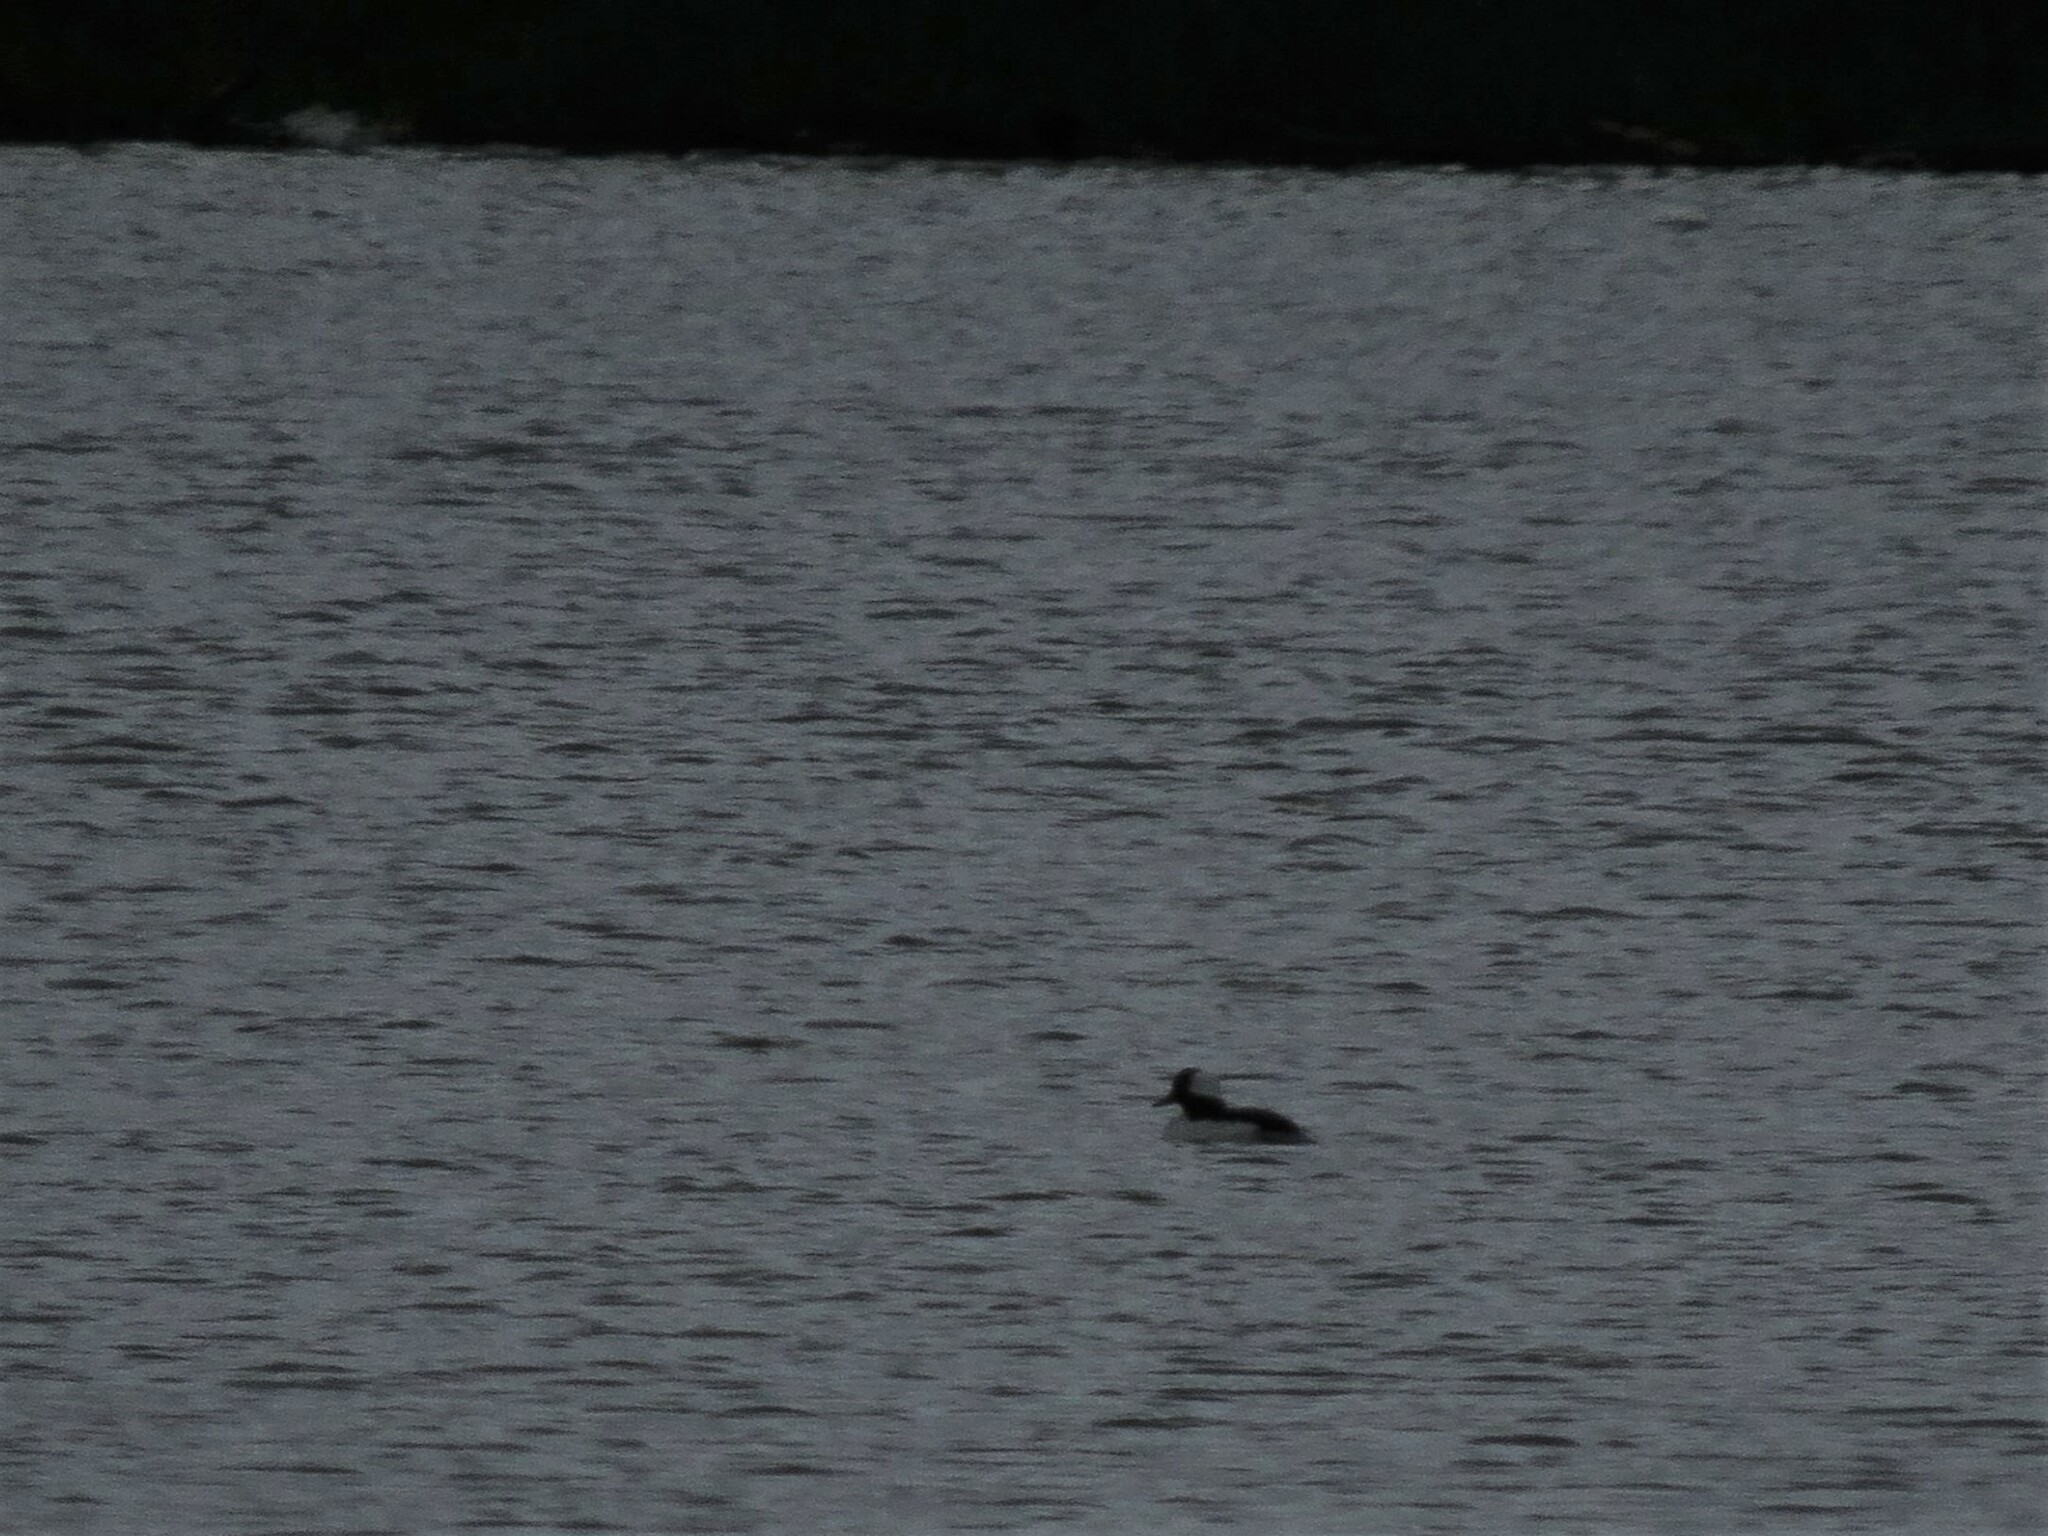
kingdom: Animalia
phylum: Chordata
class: Aves
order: Anseriformes
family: Anatidae
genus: Bucephala
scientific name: Bucephala albeola
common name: Bufflehead
